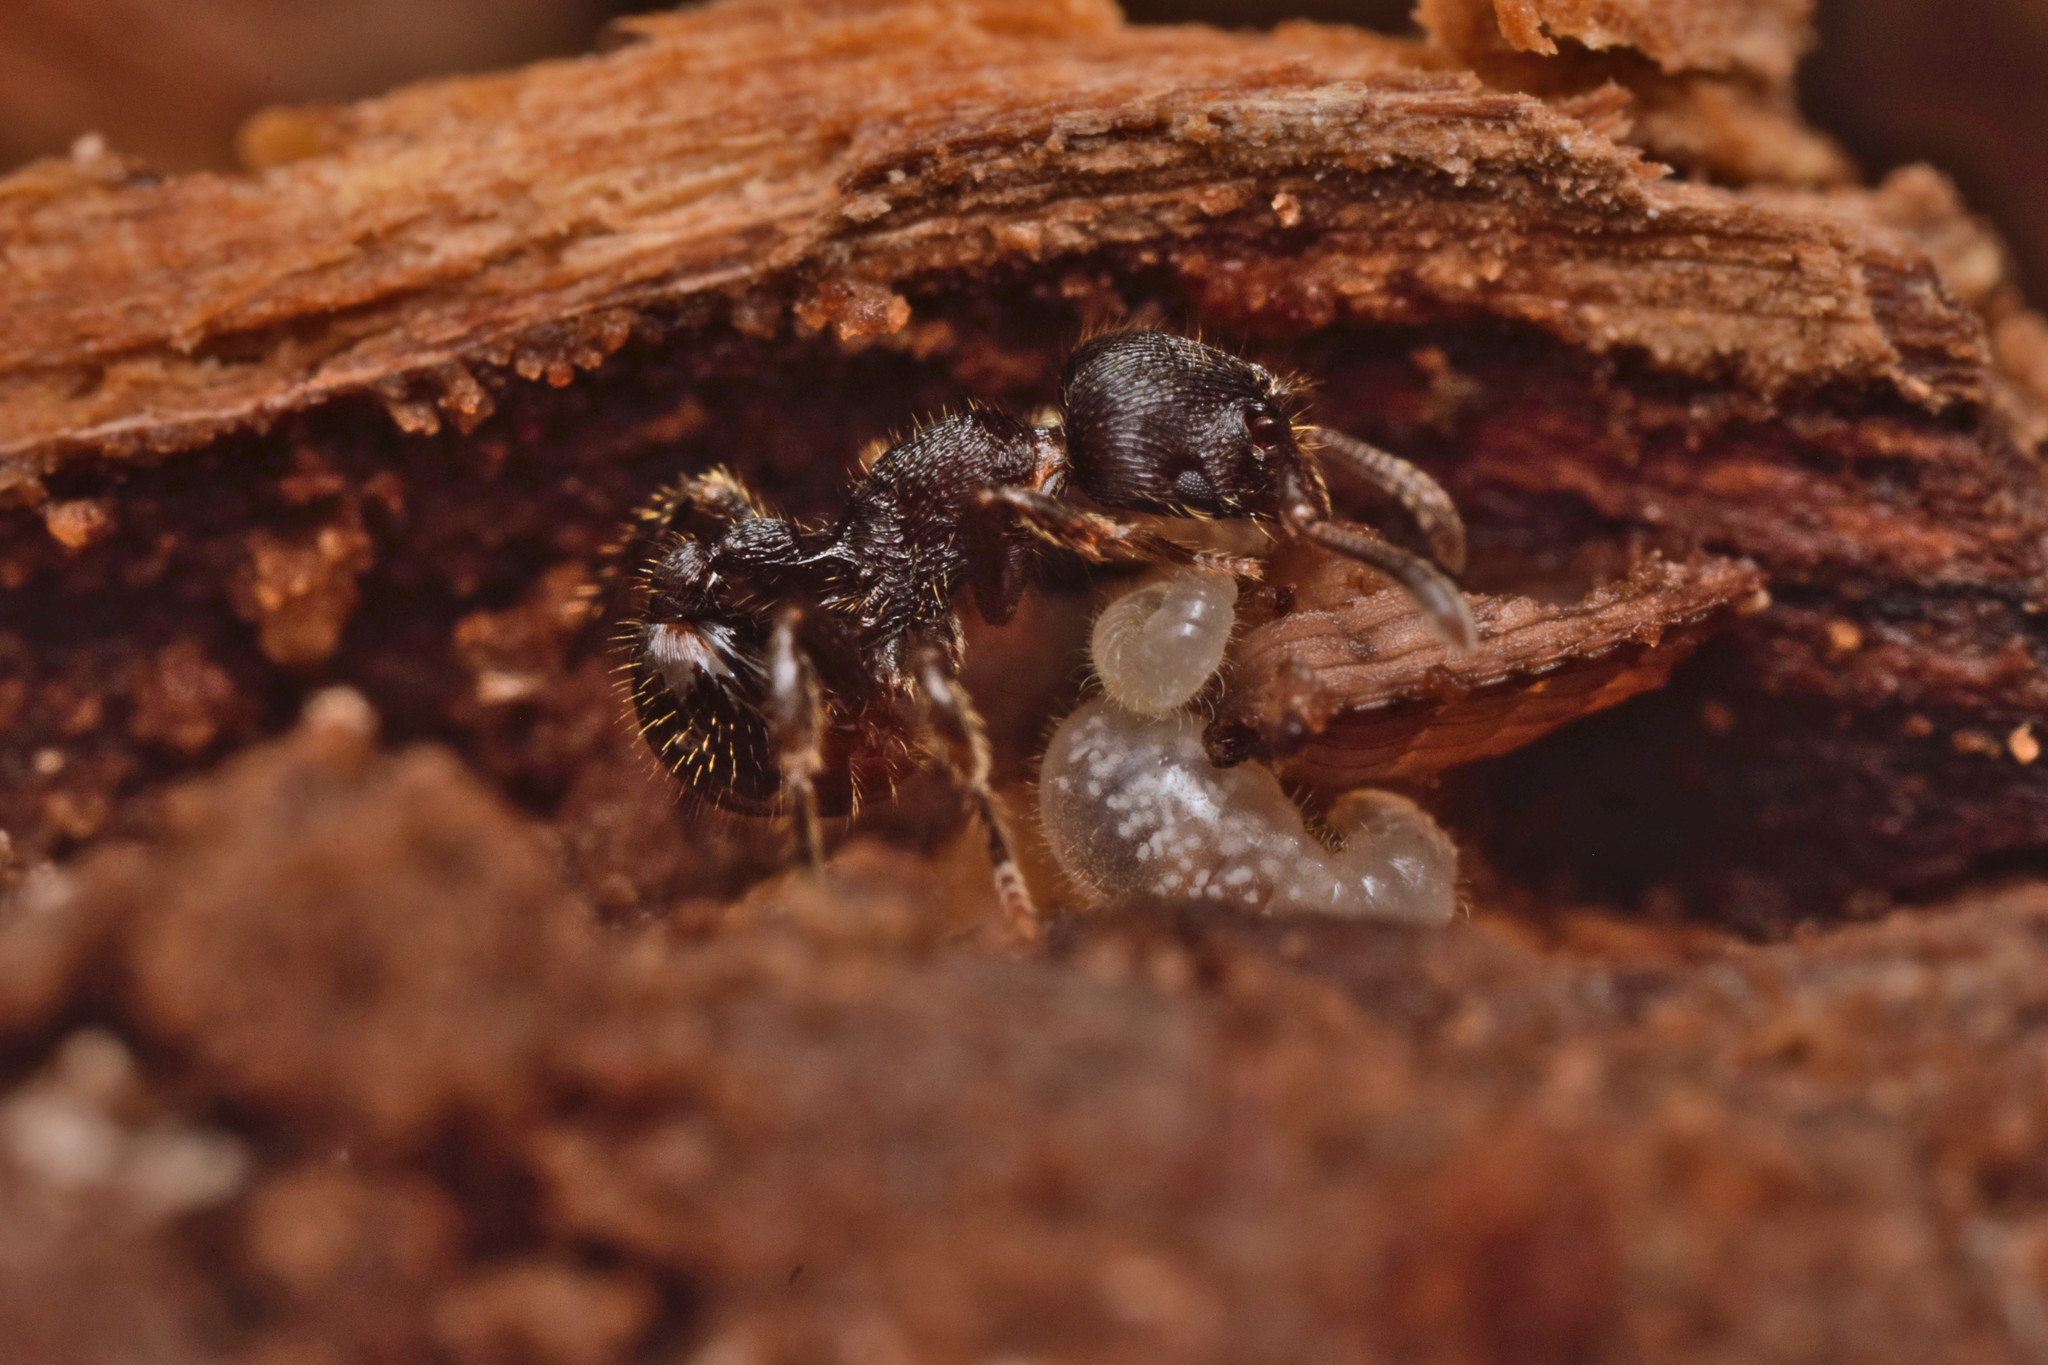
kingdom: Animalia
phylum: Arthropoda
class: Insecta
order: Hymenoptera
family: Formicidae
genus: Hylomyrma
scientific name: Hylomyrma reitteri
